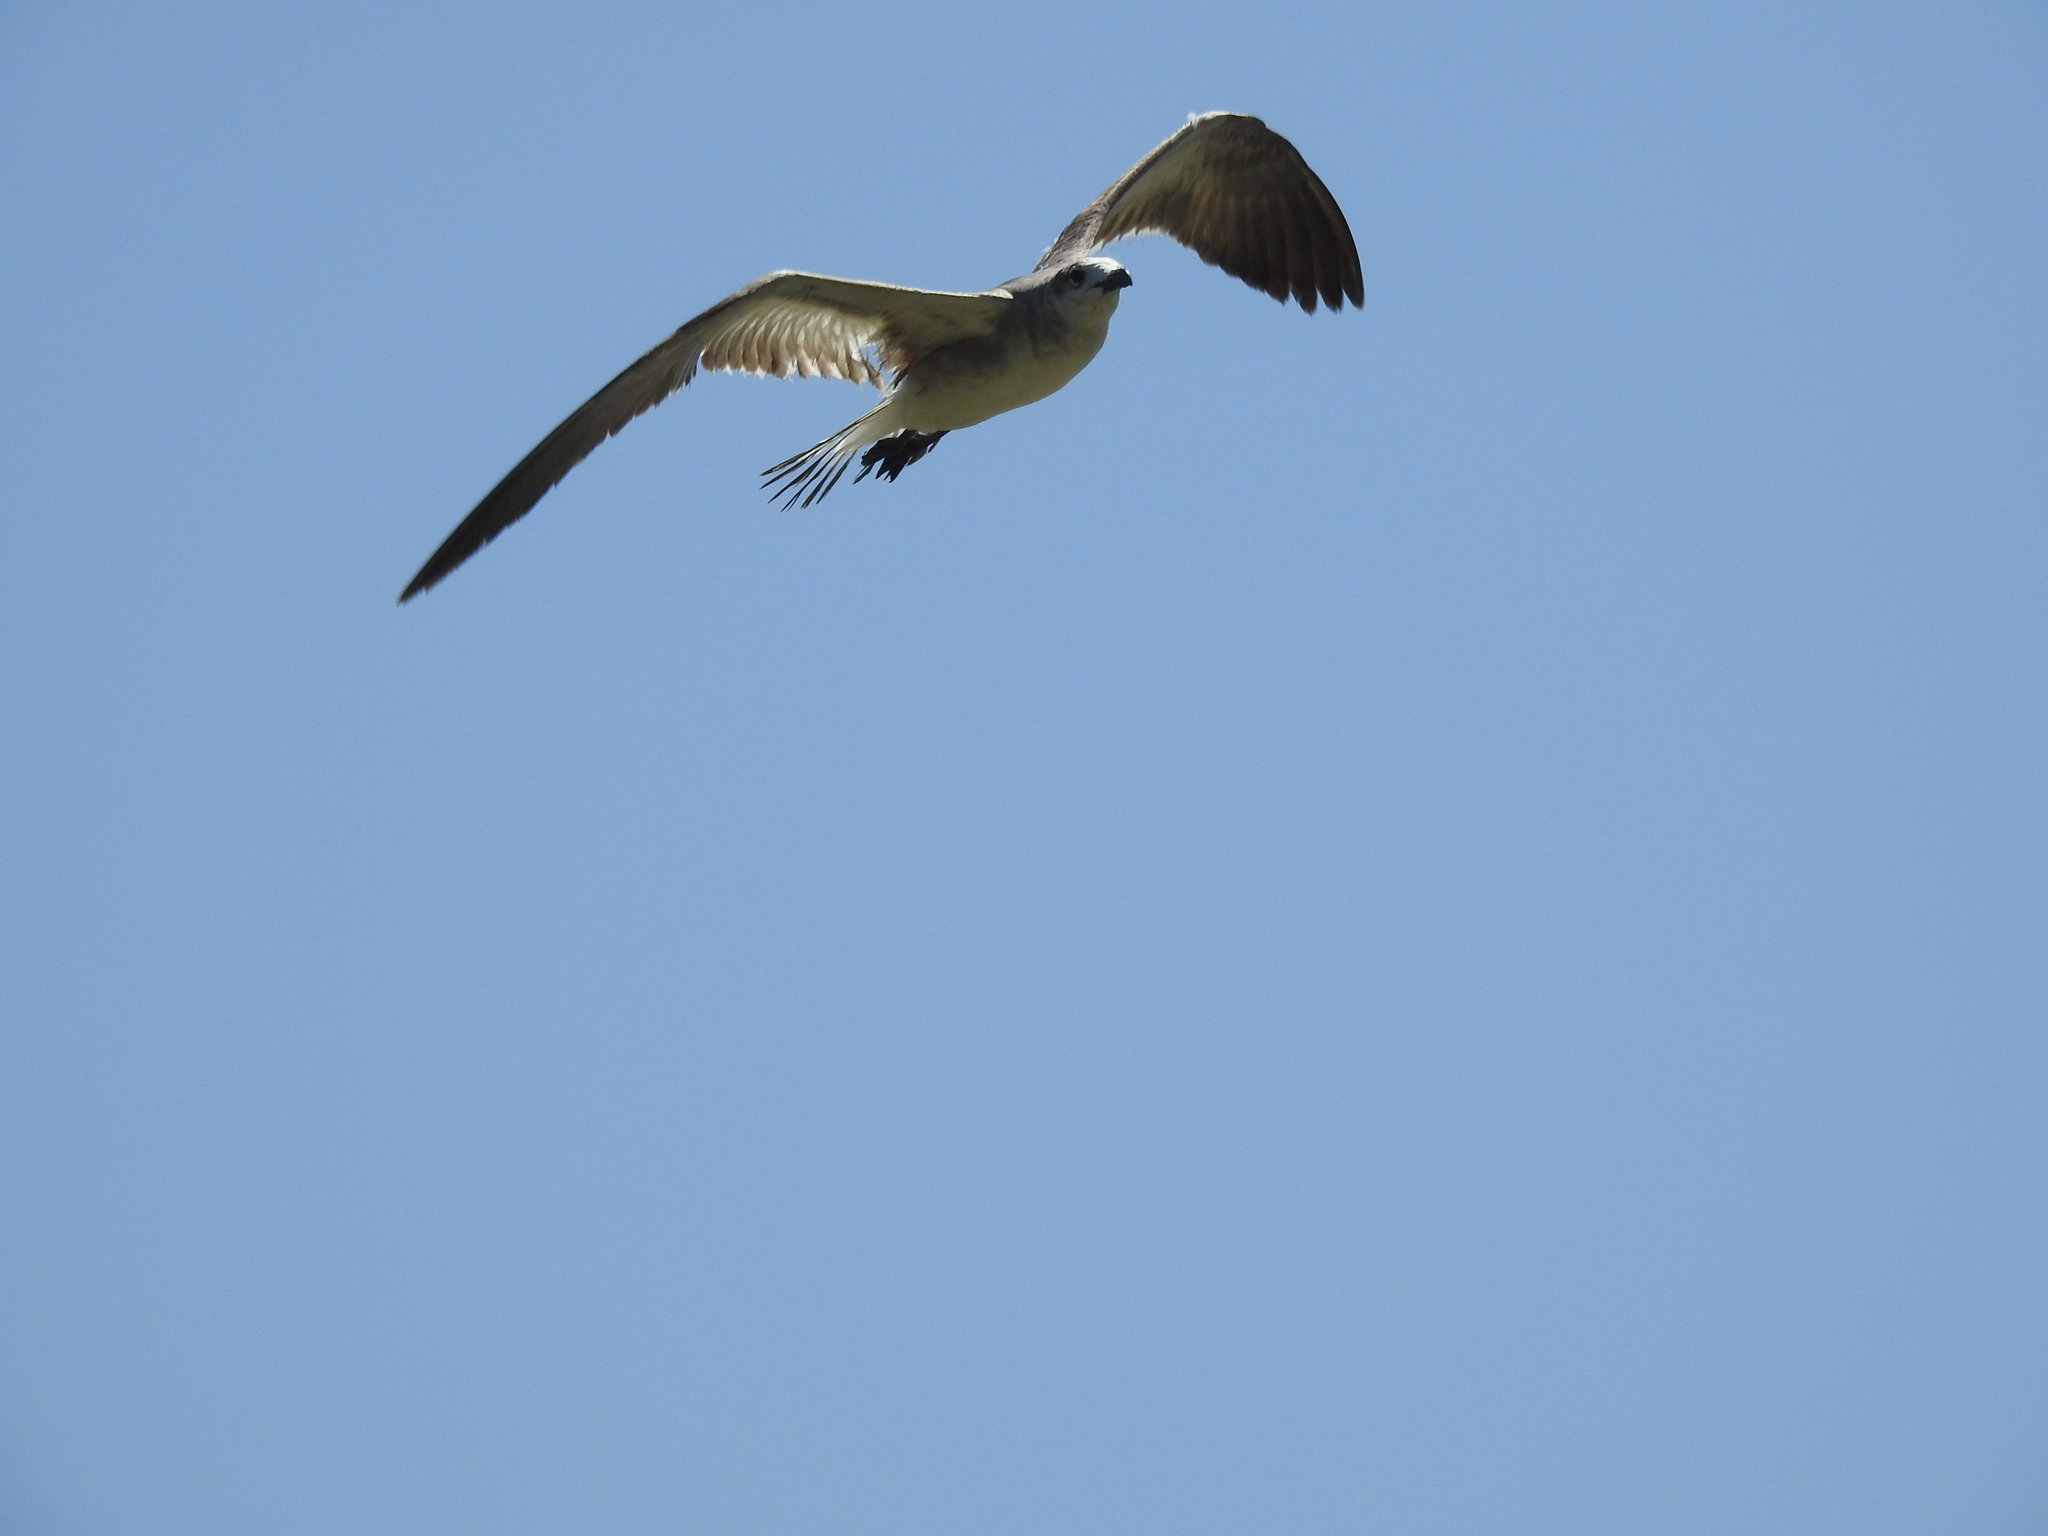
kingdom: Animalia
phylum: Chordata
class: Aves
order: Charadriiformes
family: Laridae
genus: Leucophaeus
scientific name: Leucophaeus atricilla
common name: Laughing gull
